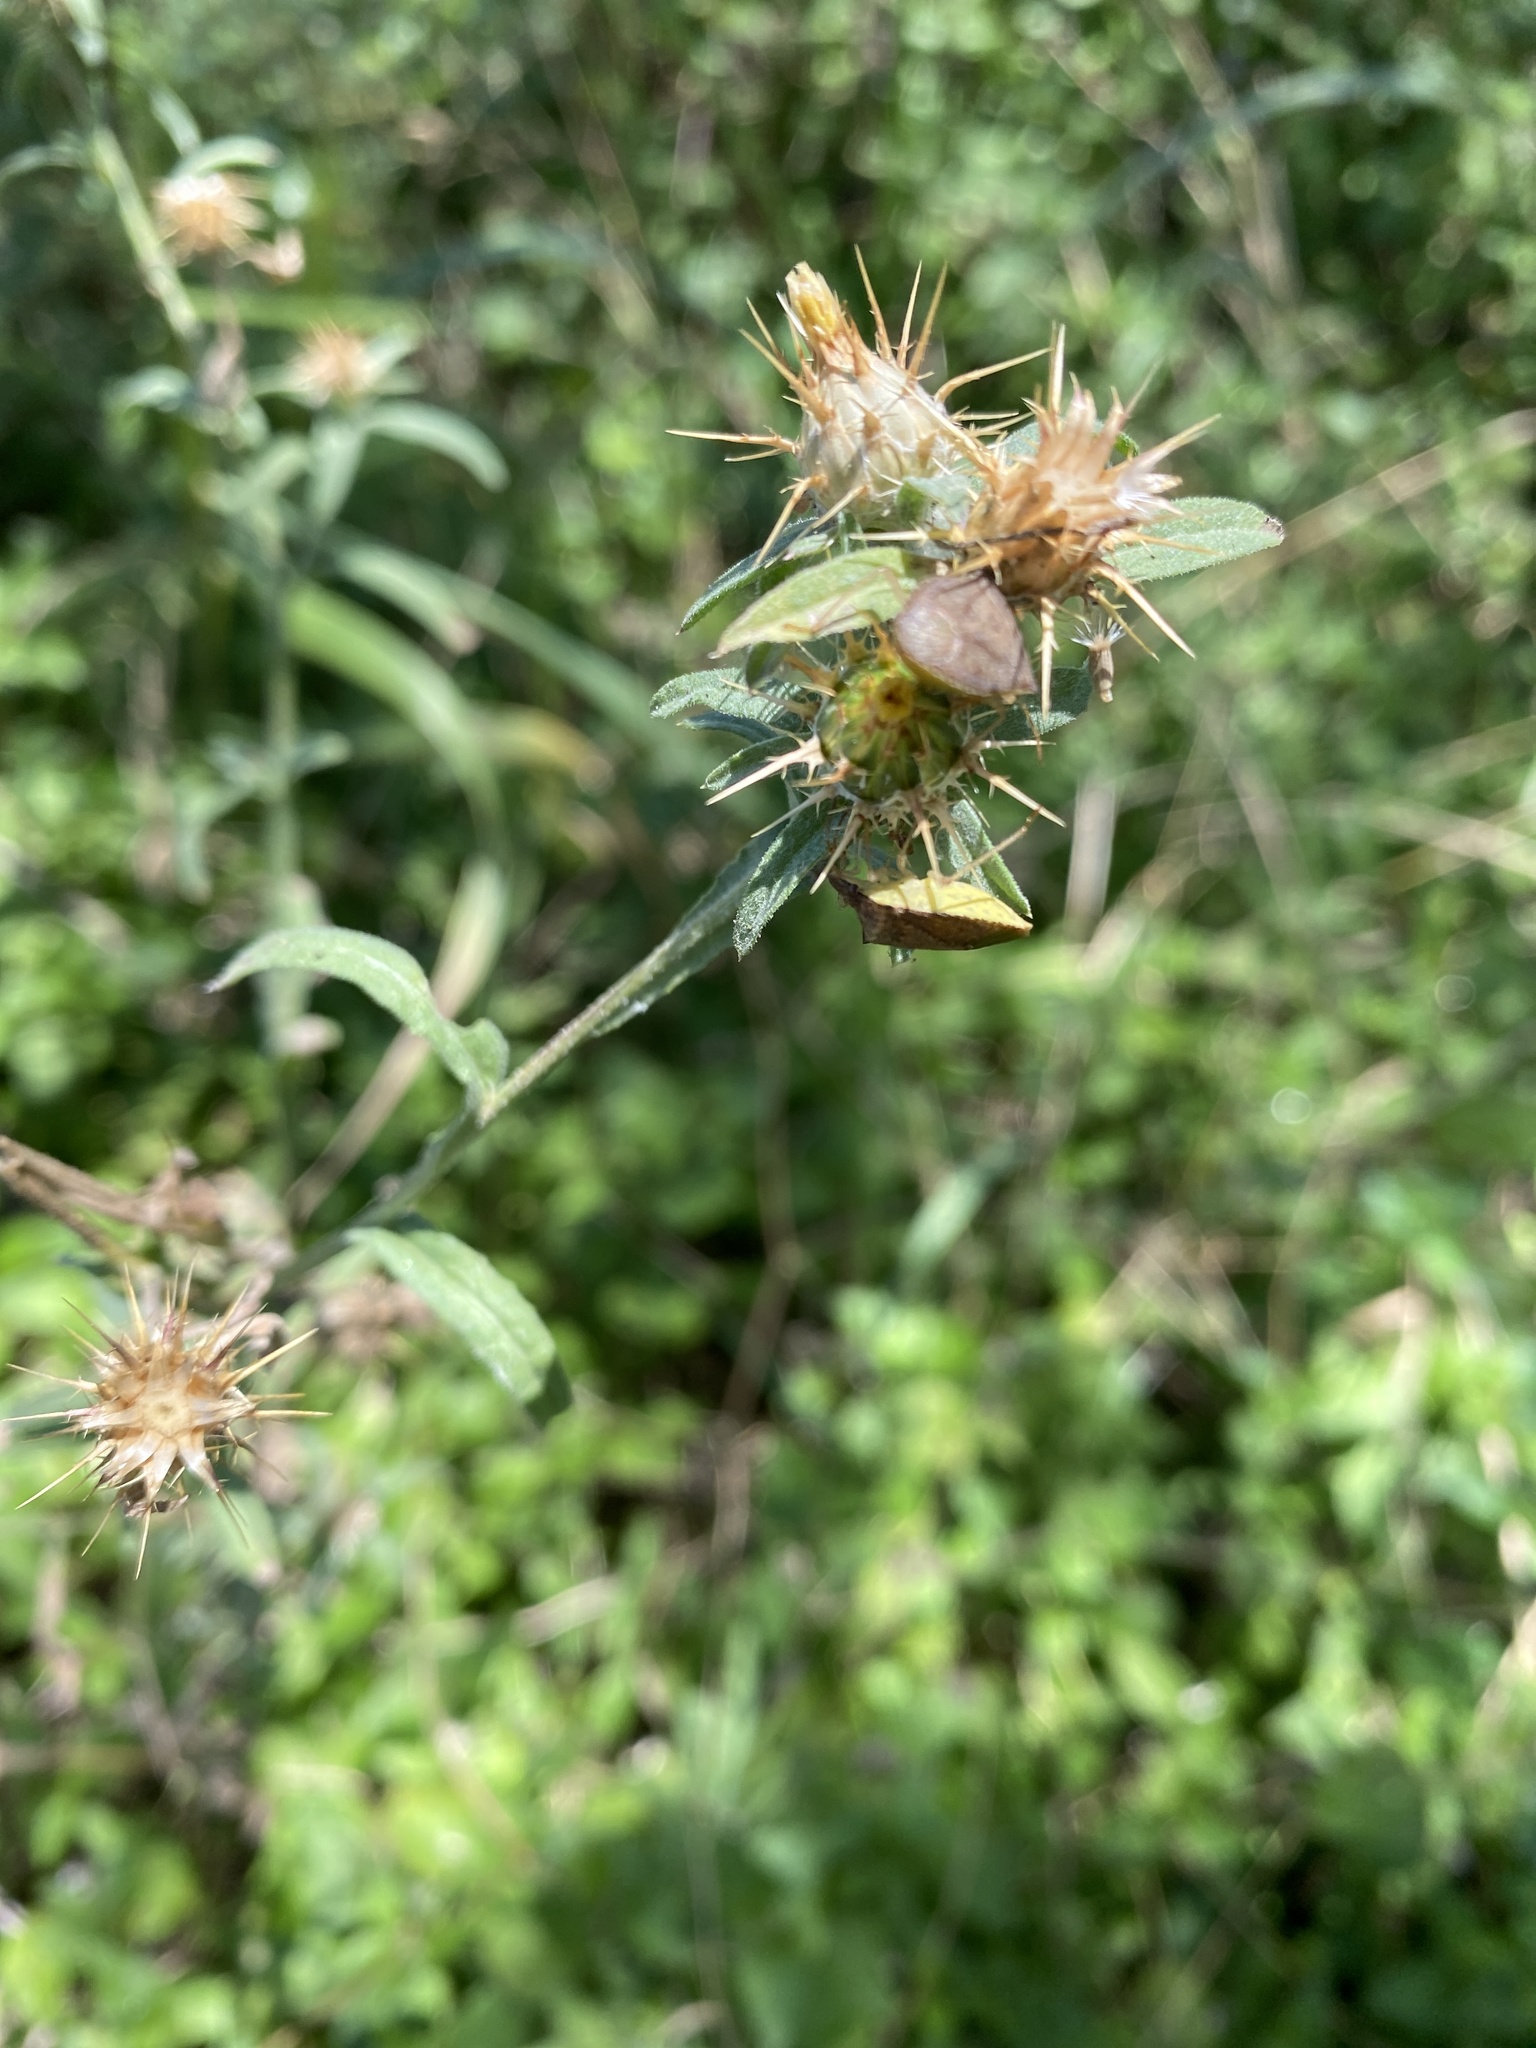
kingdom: Plantae
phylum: Tracheophyta
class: Magnoliopsida
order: Asterales
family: Asteraceae
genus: Centaurea
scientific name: Centaurea melitensis
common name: Maltese star-thistle
